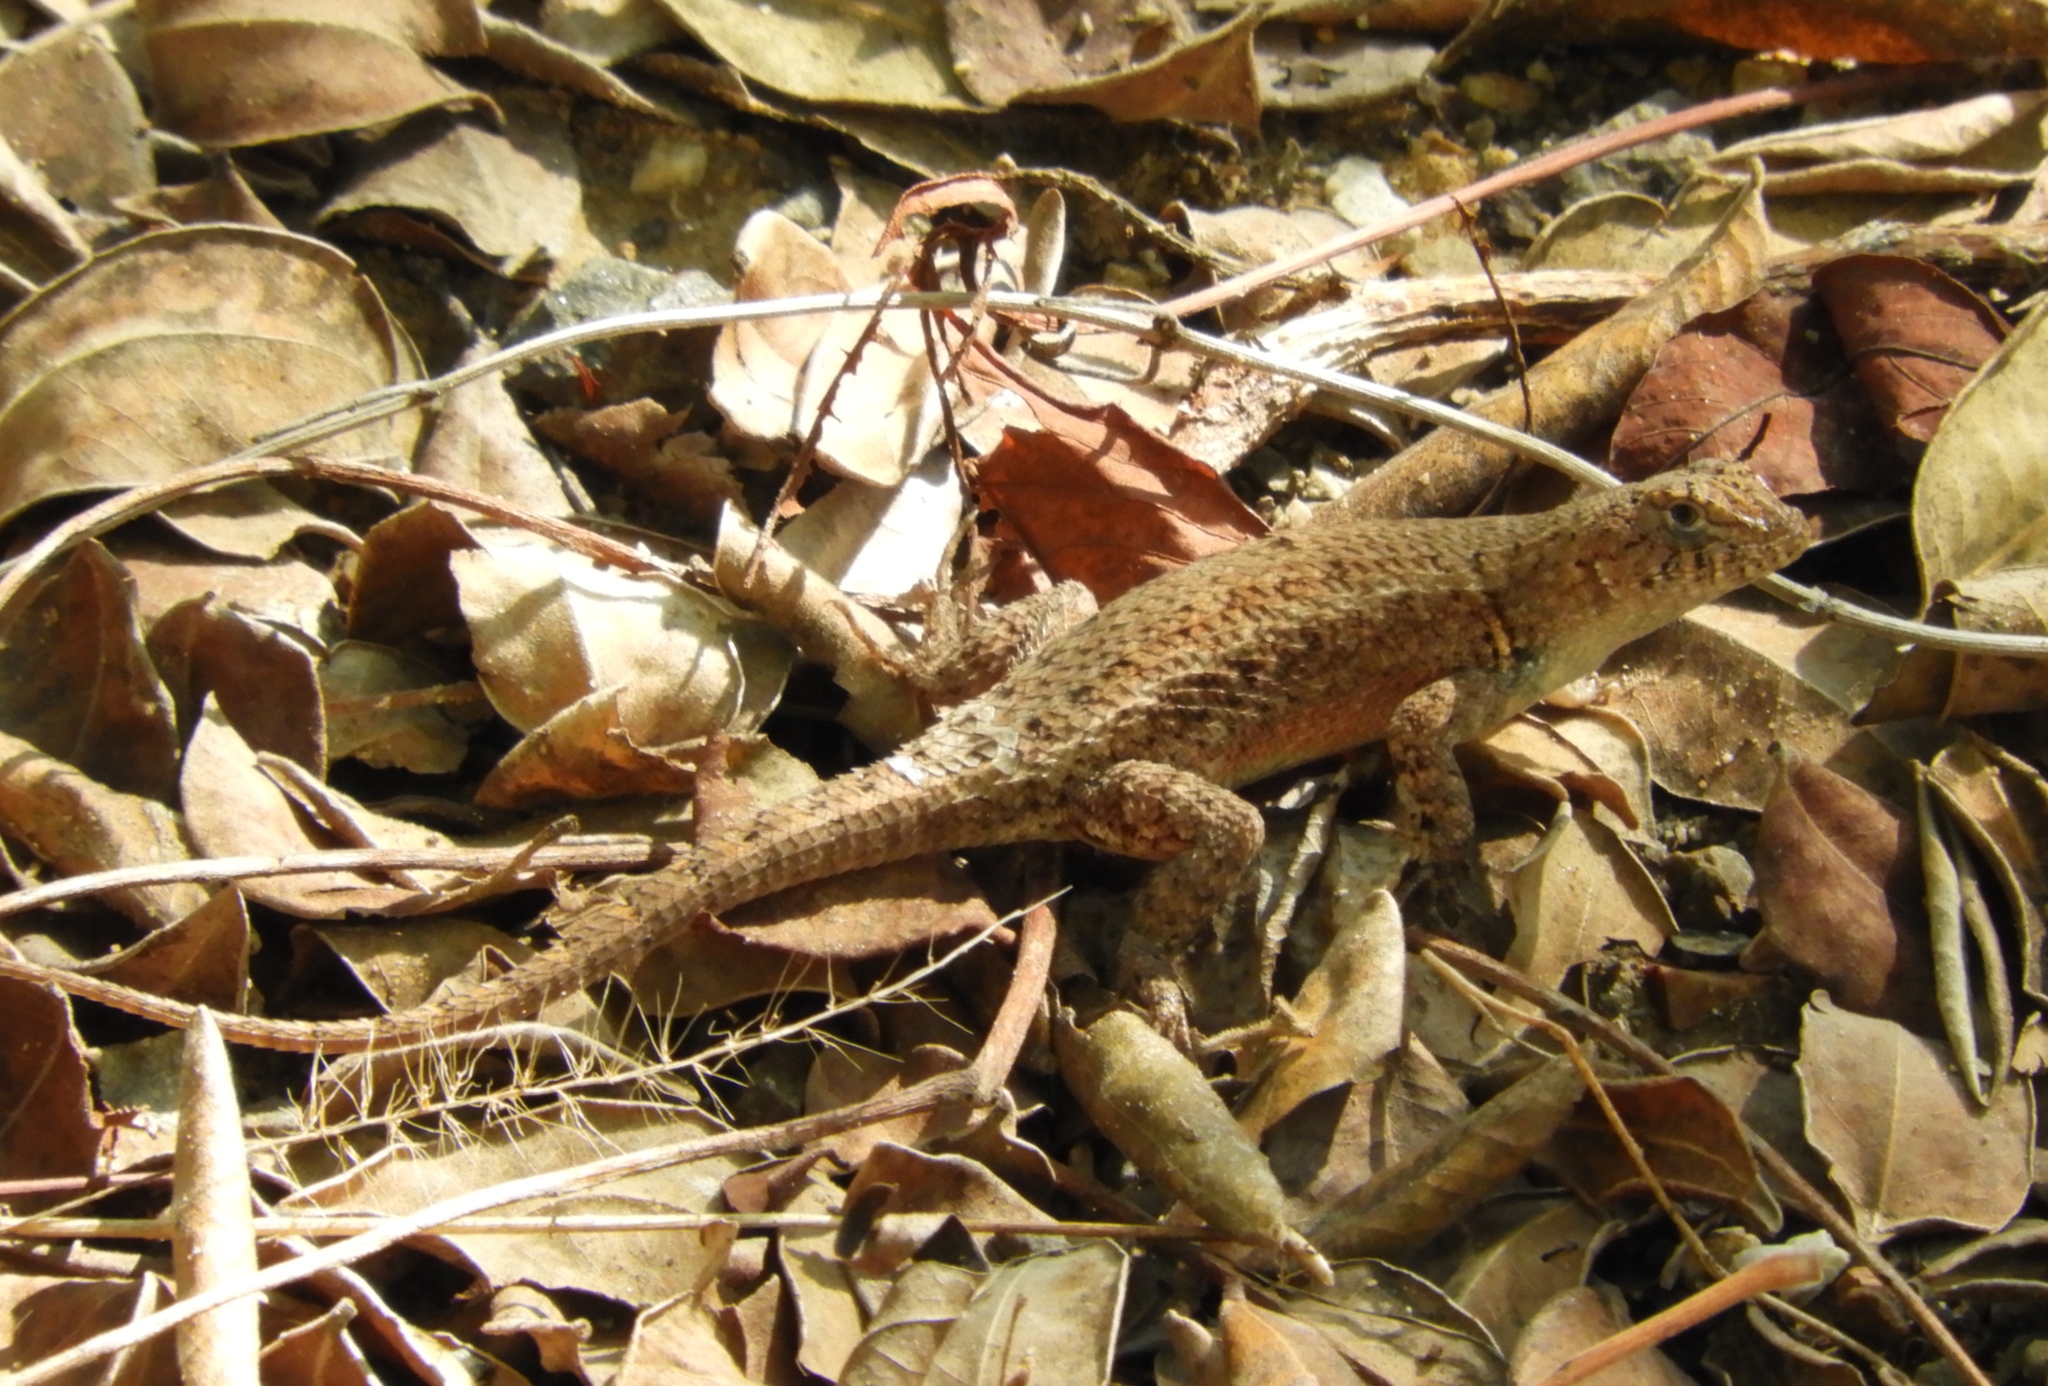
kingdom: Animalia
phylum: Chordata
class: Squamata
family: Phrynosomatidae
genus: Sceloporus
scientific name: Sceloporus nelsoni
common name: Nelson's spiny lizard
